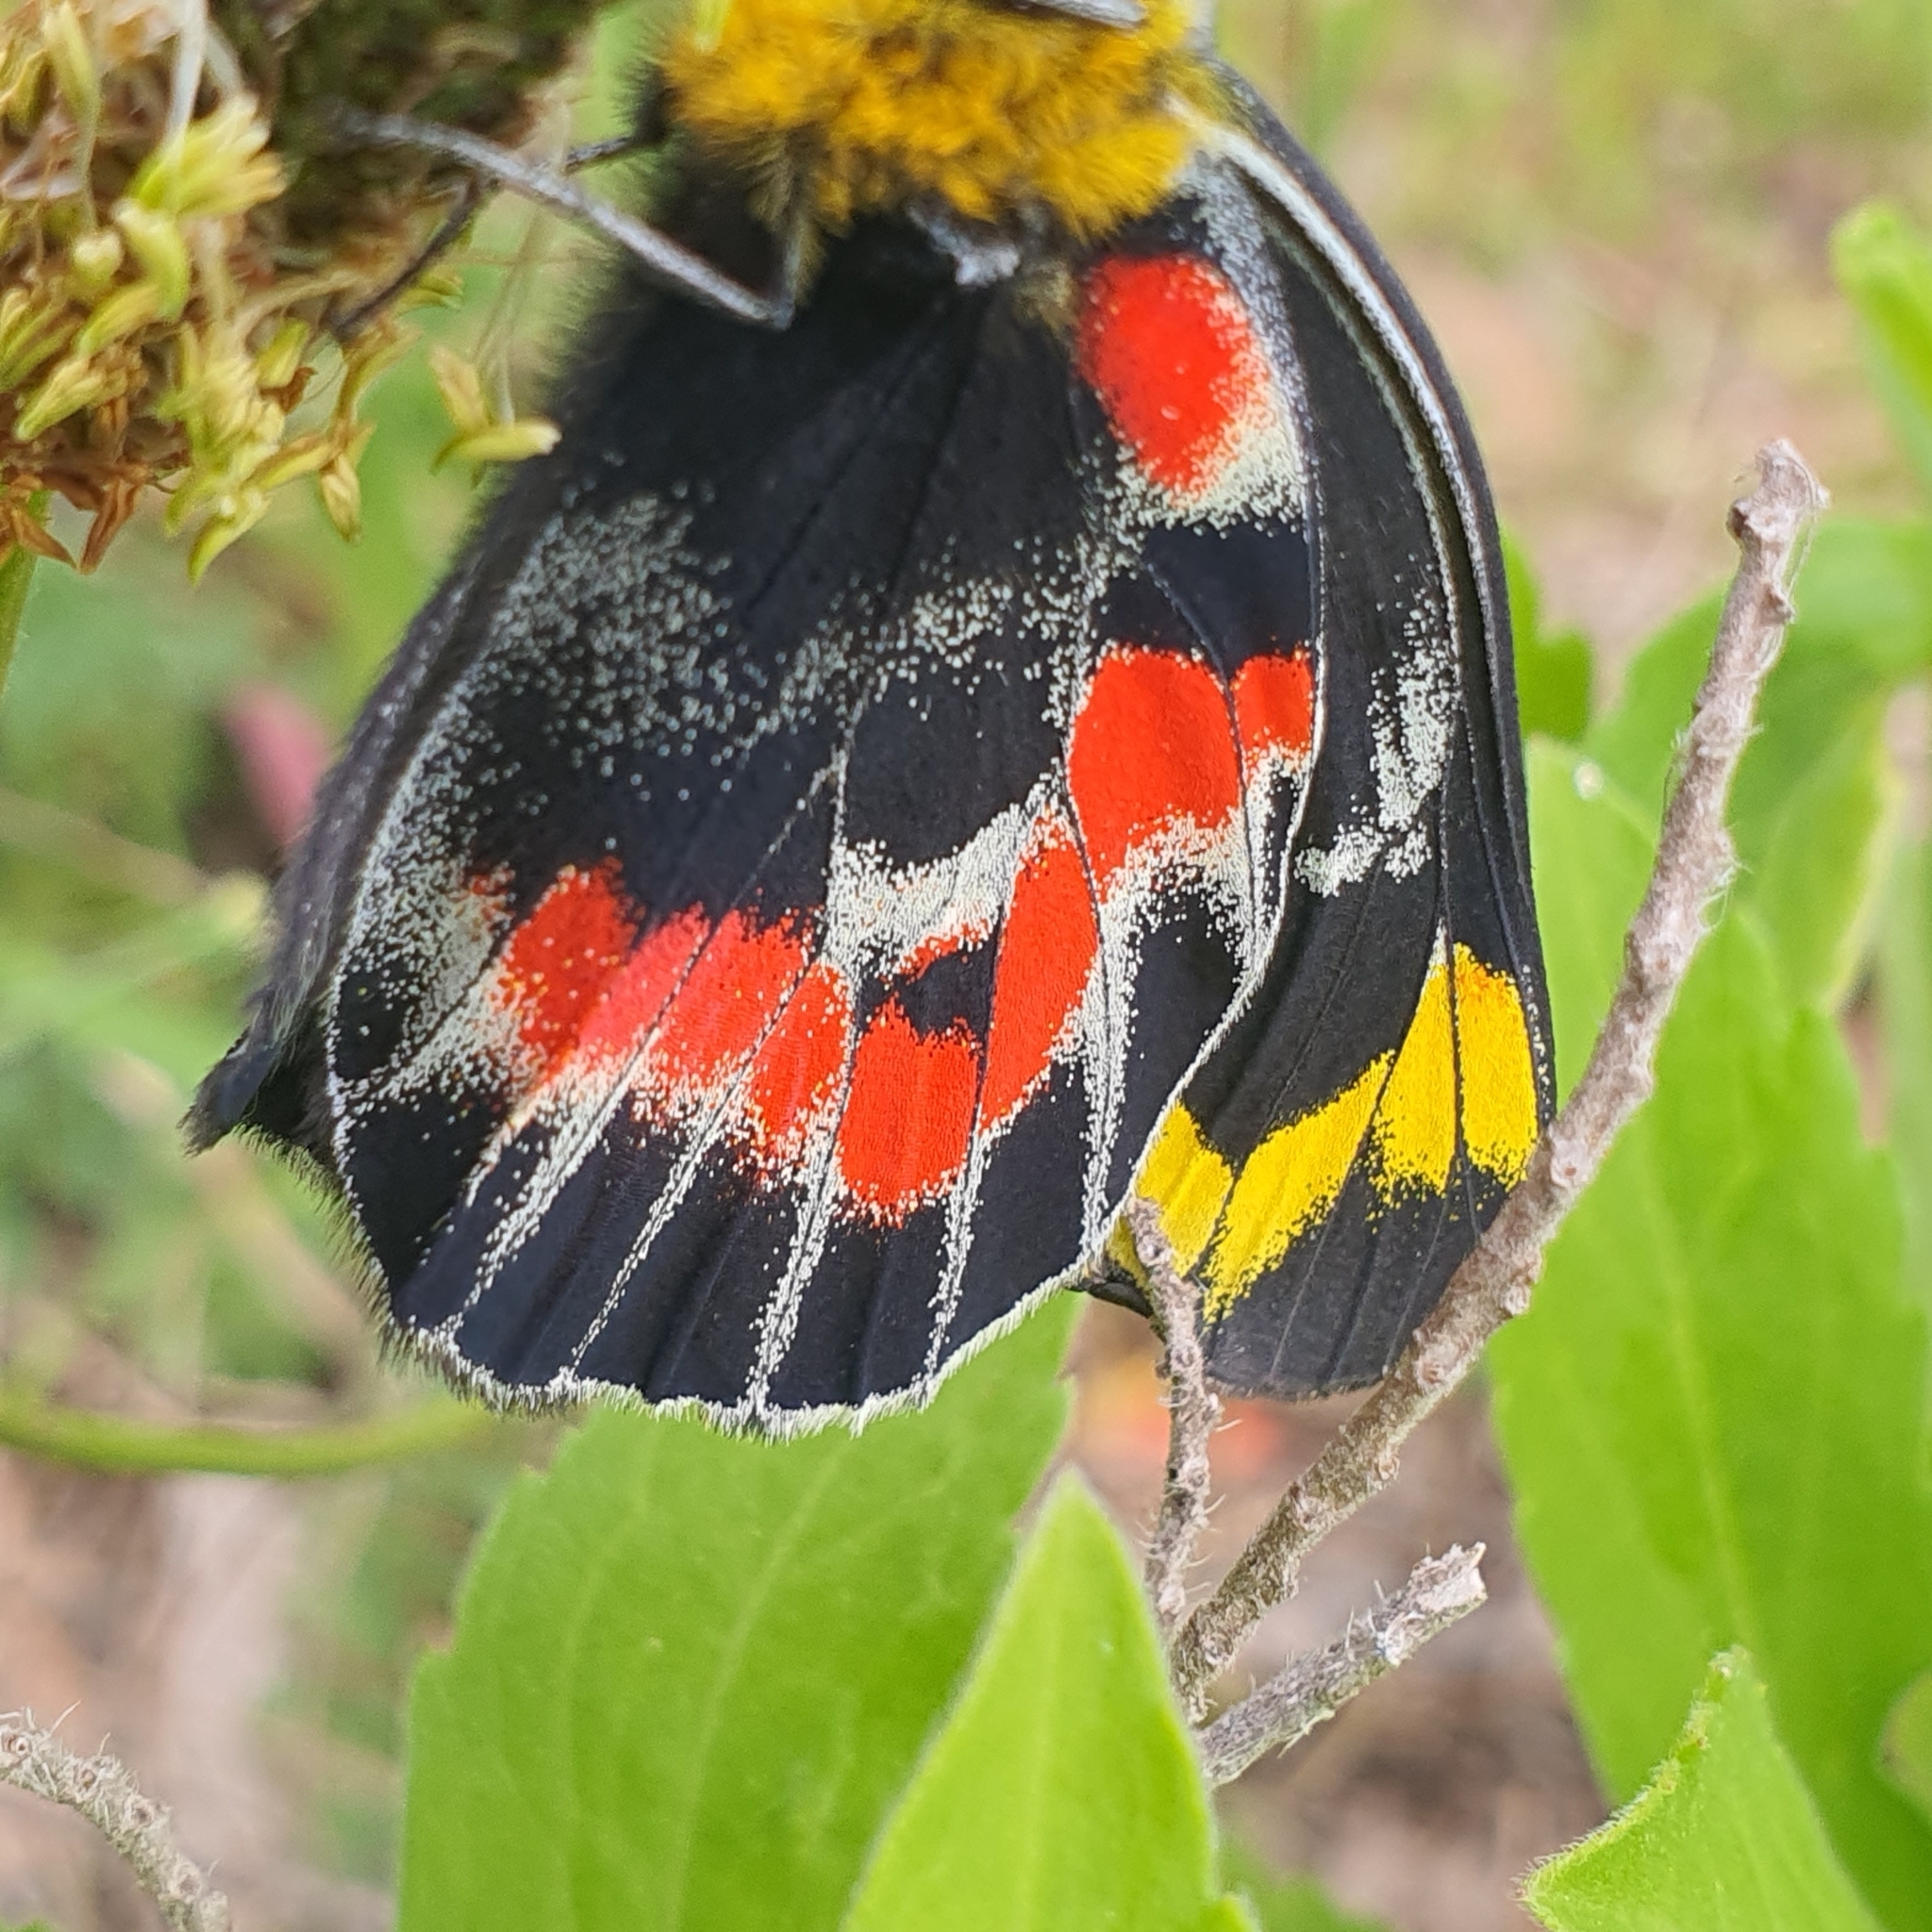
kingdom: Animalia
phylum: Arthropoda
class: Insecta
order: Lepidoptera
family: Pieridae
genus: Delias
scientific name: Delias harpalyce
